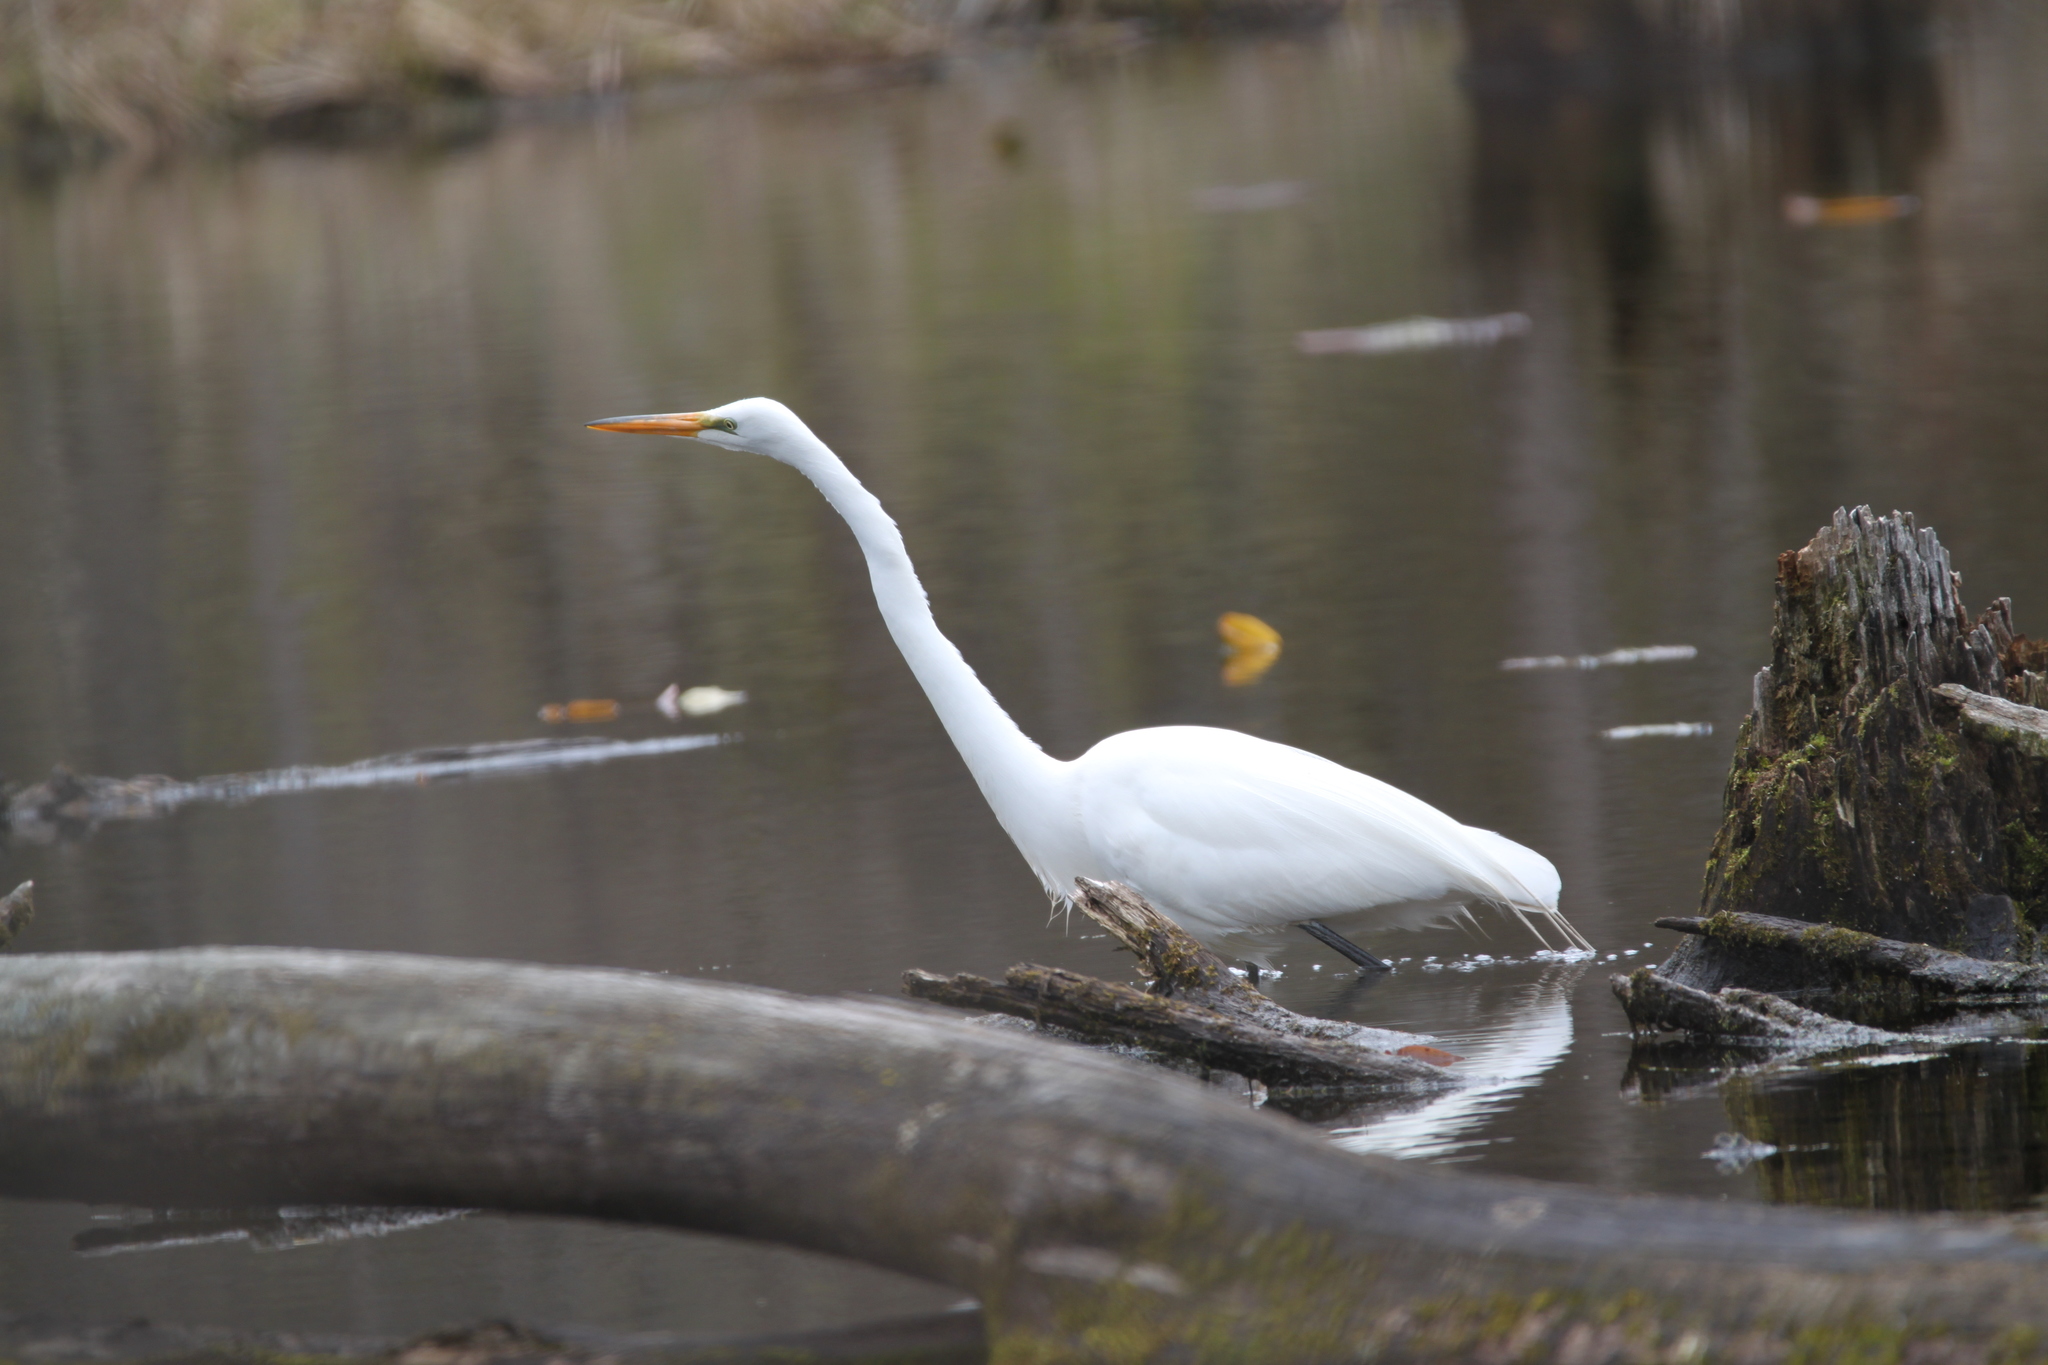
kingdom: Animalia
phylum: Chordata
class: Aves
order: Pelecaniformes
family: Ardeidae
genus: Ardea
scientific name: Ardea alba
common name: Great egret
